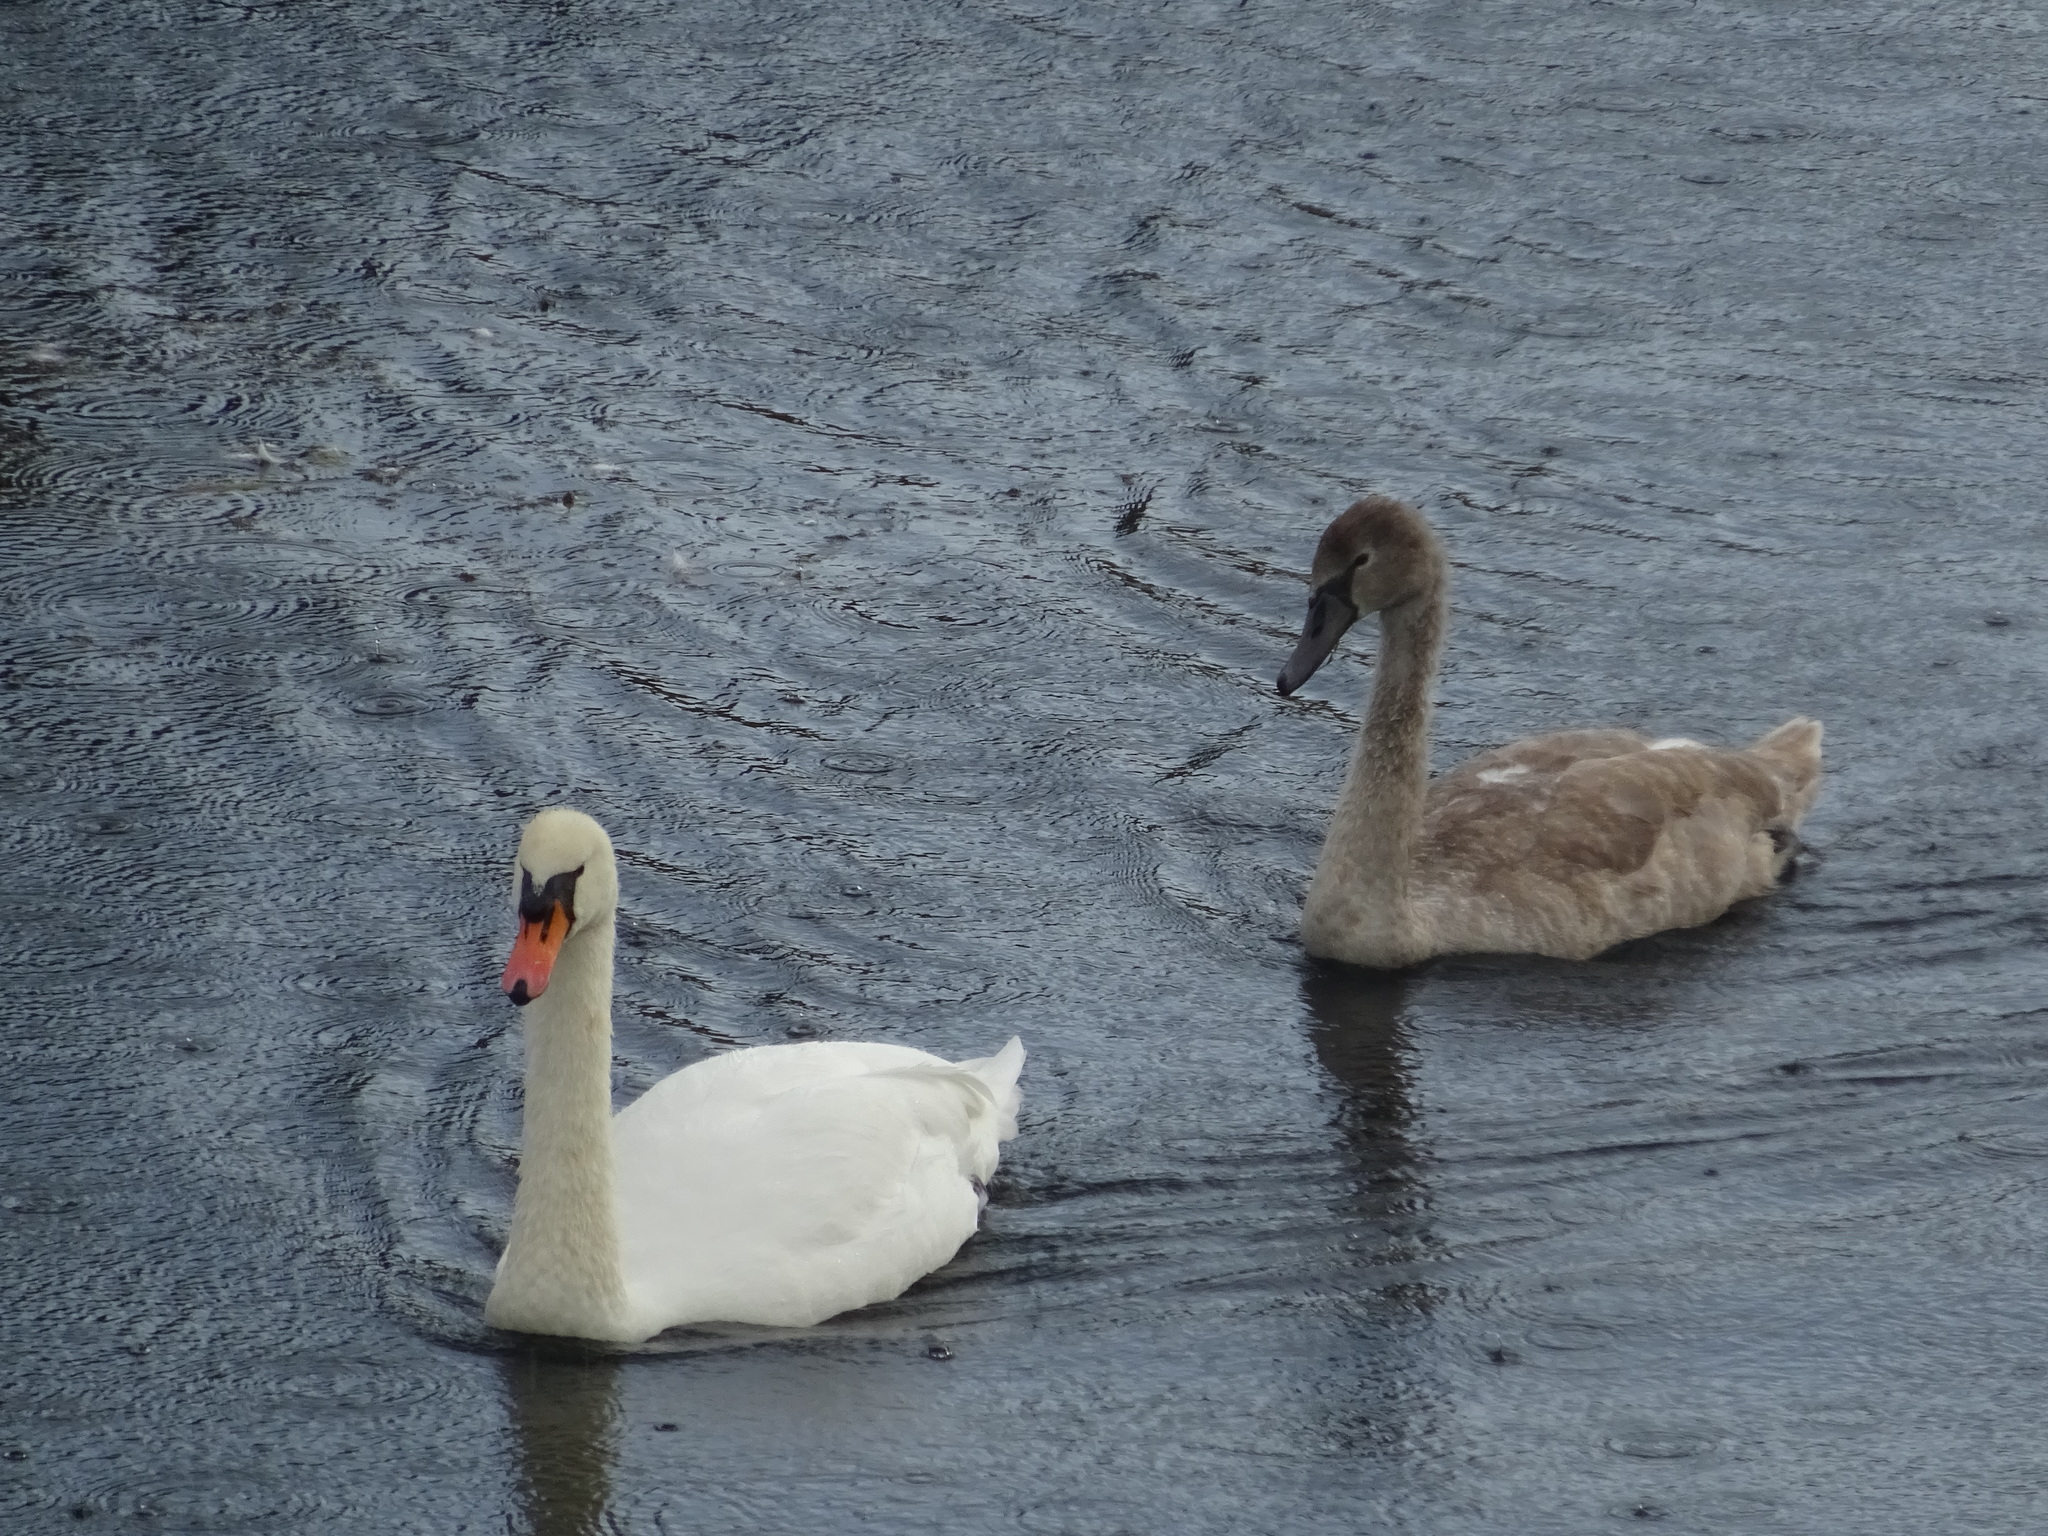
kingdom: Animalia
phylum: Chordata
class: Aves
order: Anseriformes
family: Anatidae
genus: Cygnus
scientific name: Cygnus olor
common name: Mute swan
